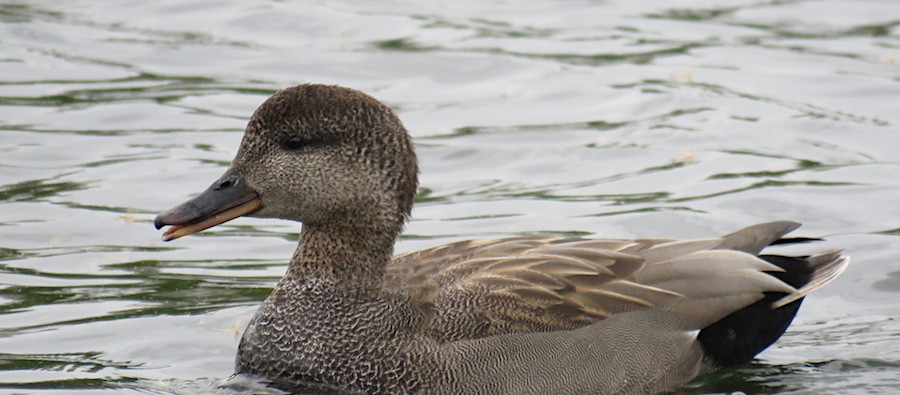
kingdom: Animalia
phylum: Chordata
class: Aves
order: Anseriformes
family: Anatidae
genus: Mareca
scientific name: Mareca strepera
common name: Gadwall
